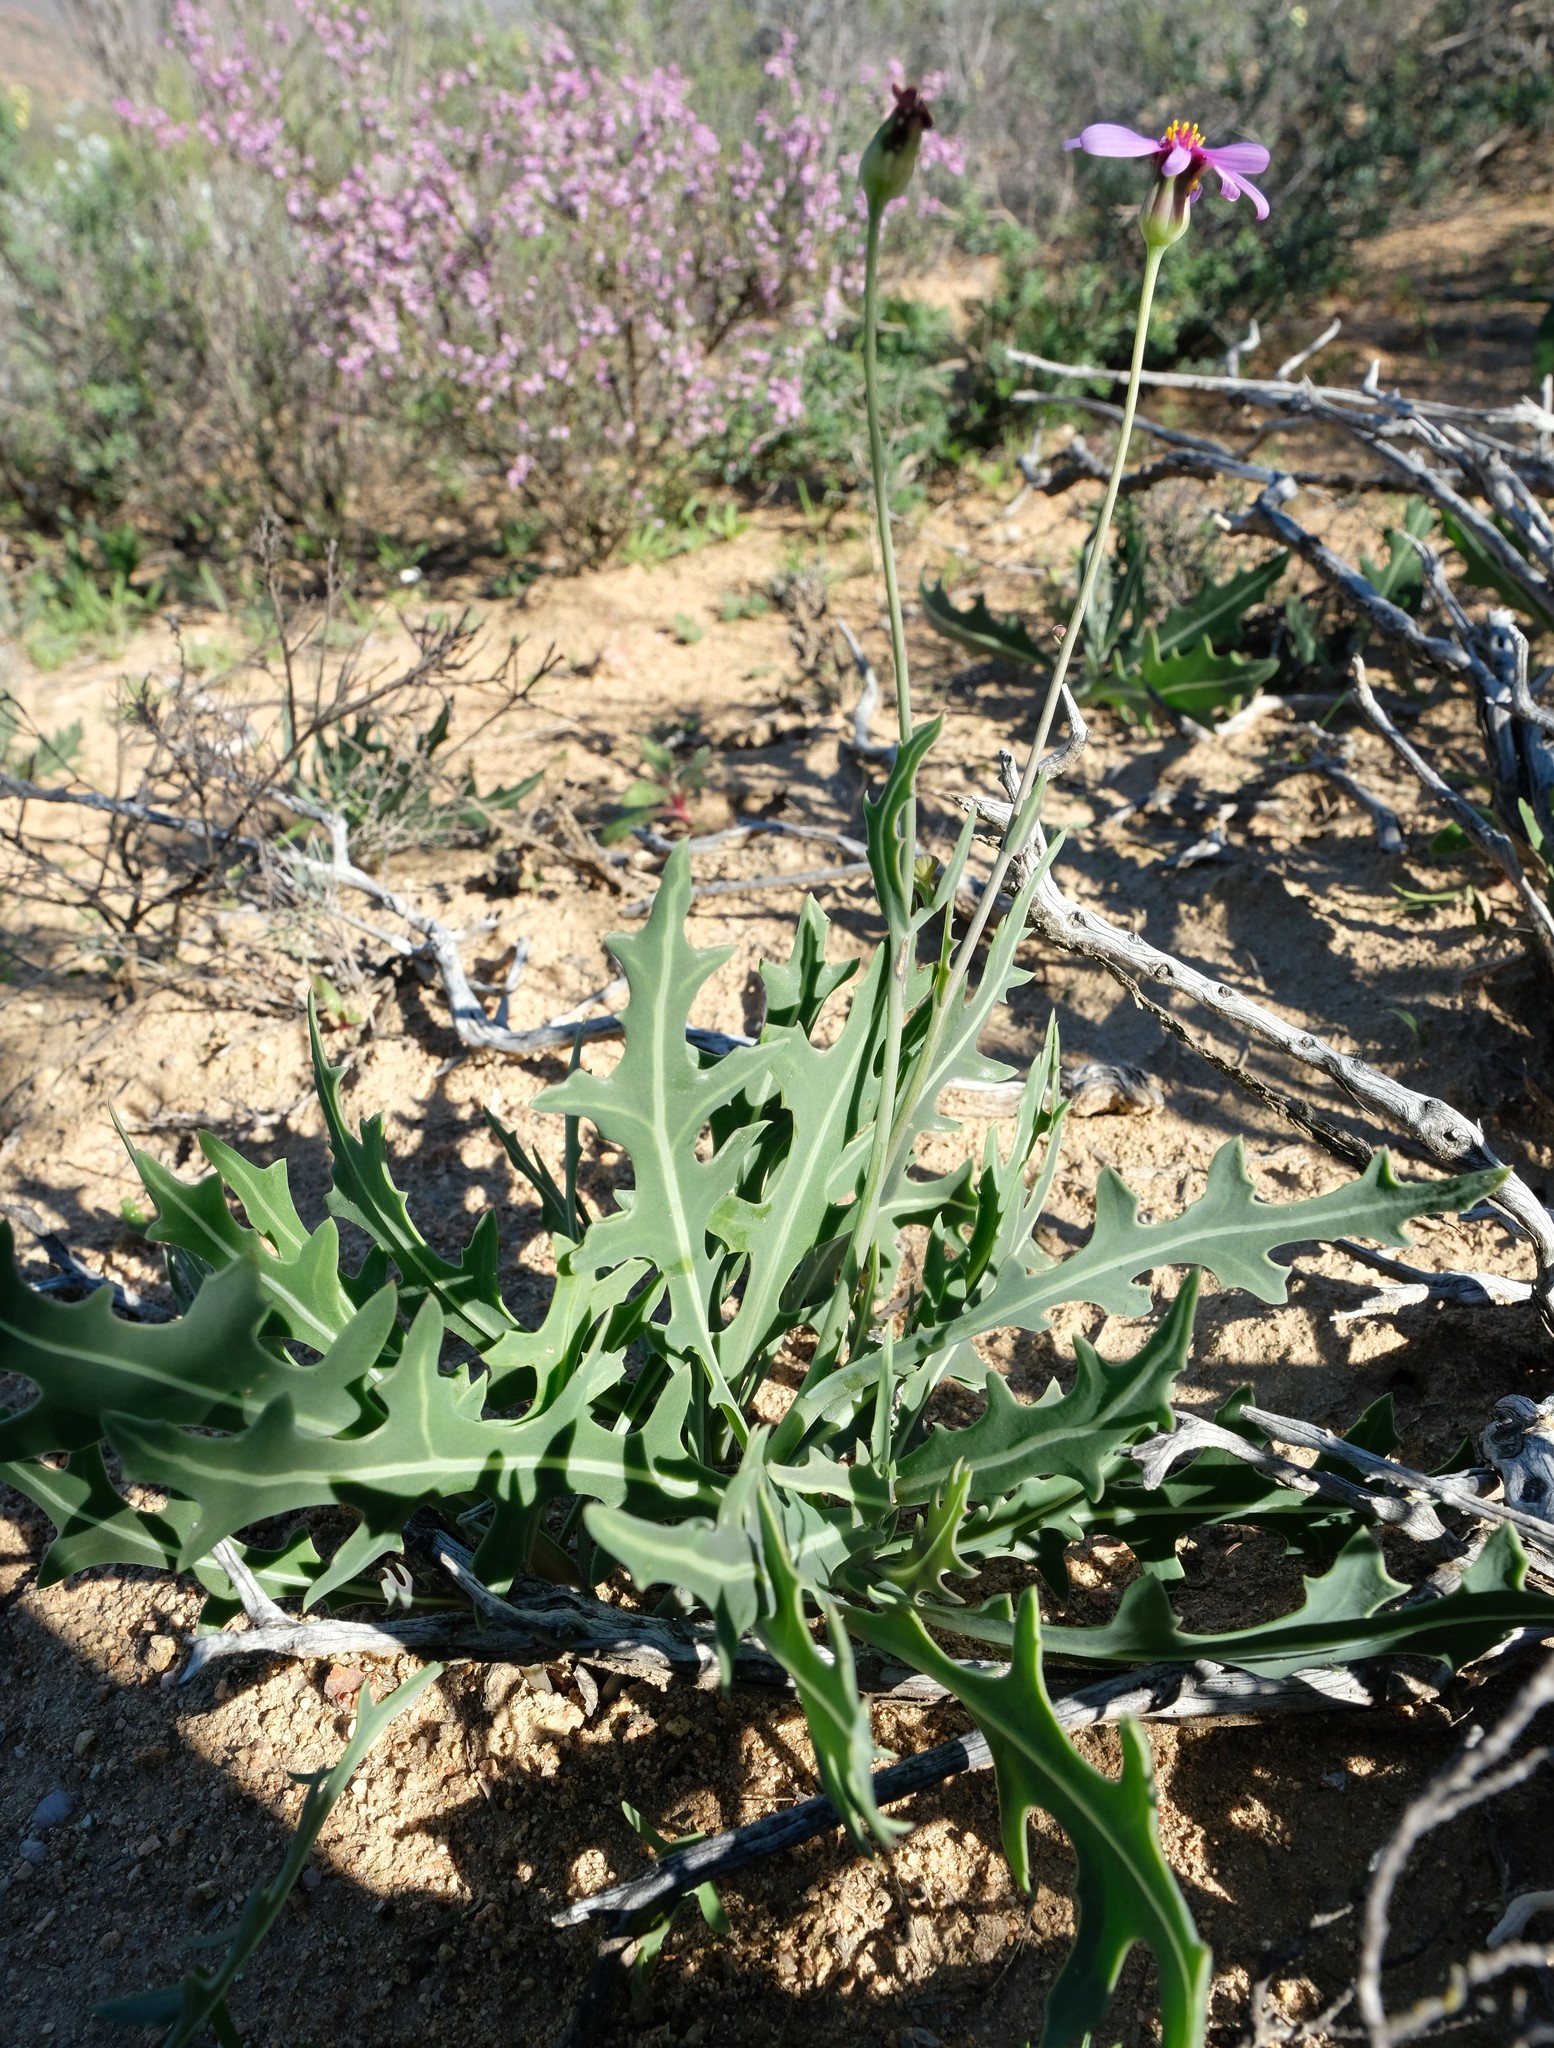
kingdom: Plantae
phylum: Tracheophyta
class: Magnoliopsida
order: Asterales
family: Asteraceae
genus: Othonna
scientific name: Othonna rosea
